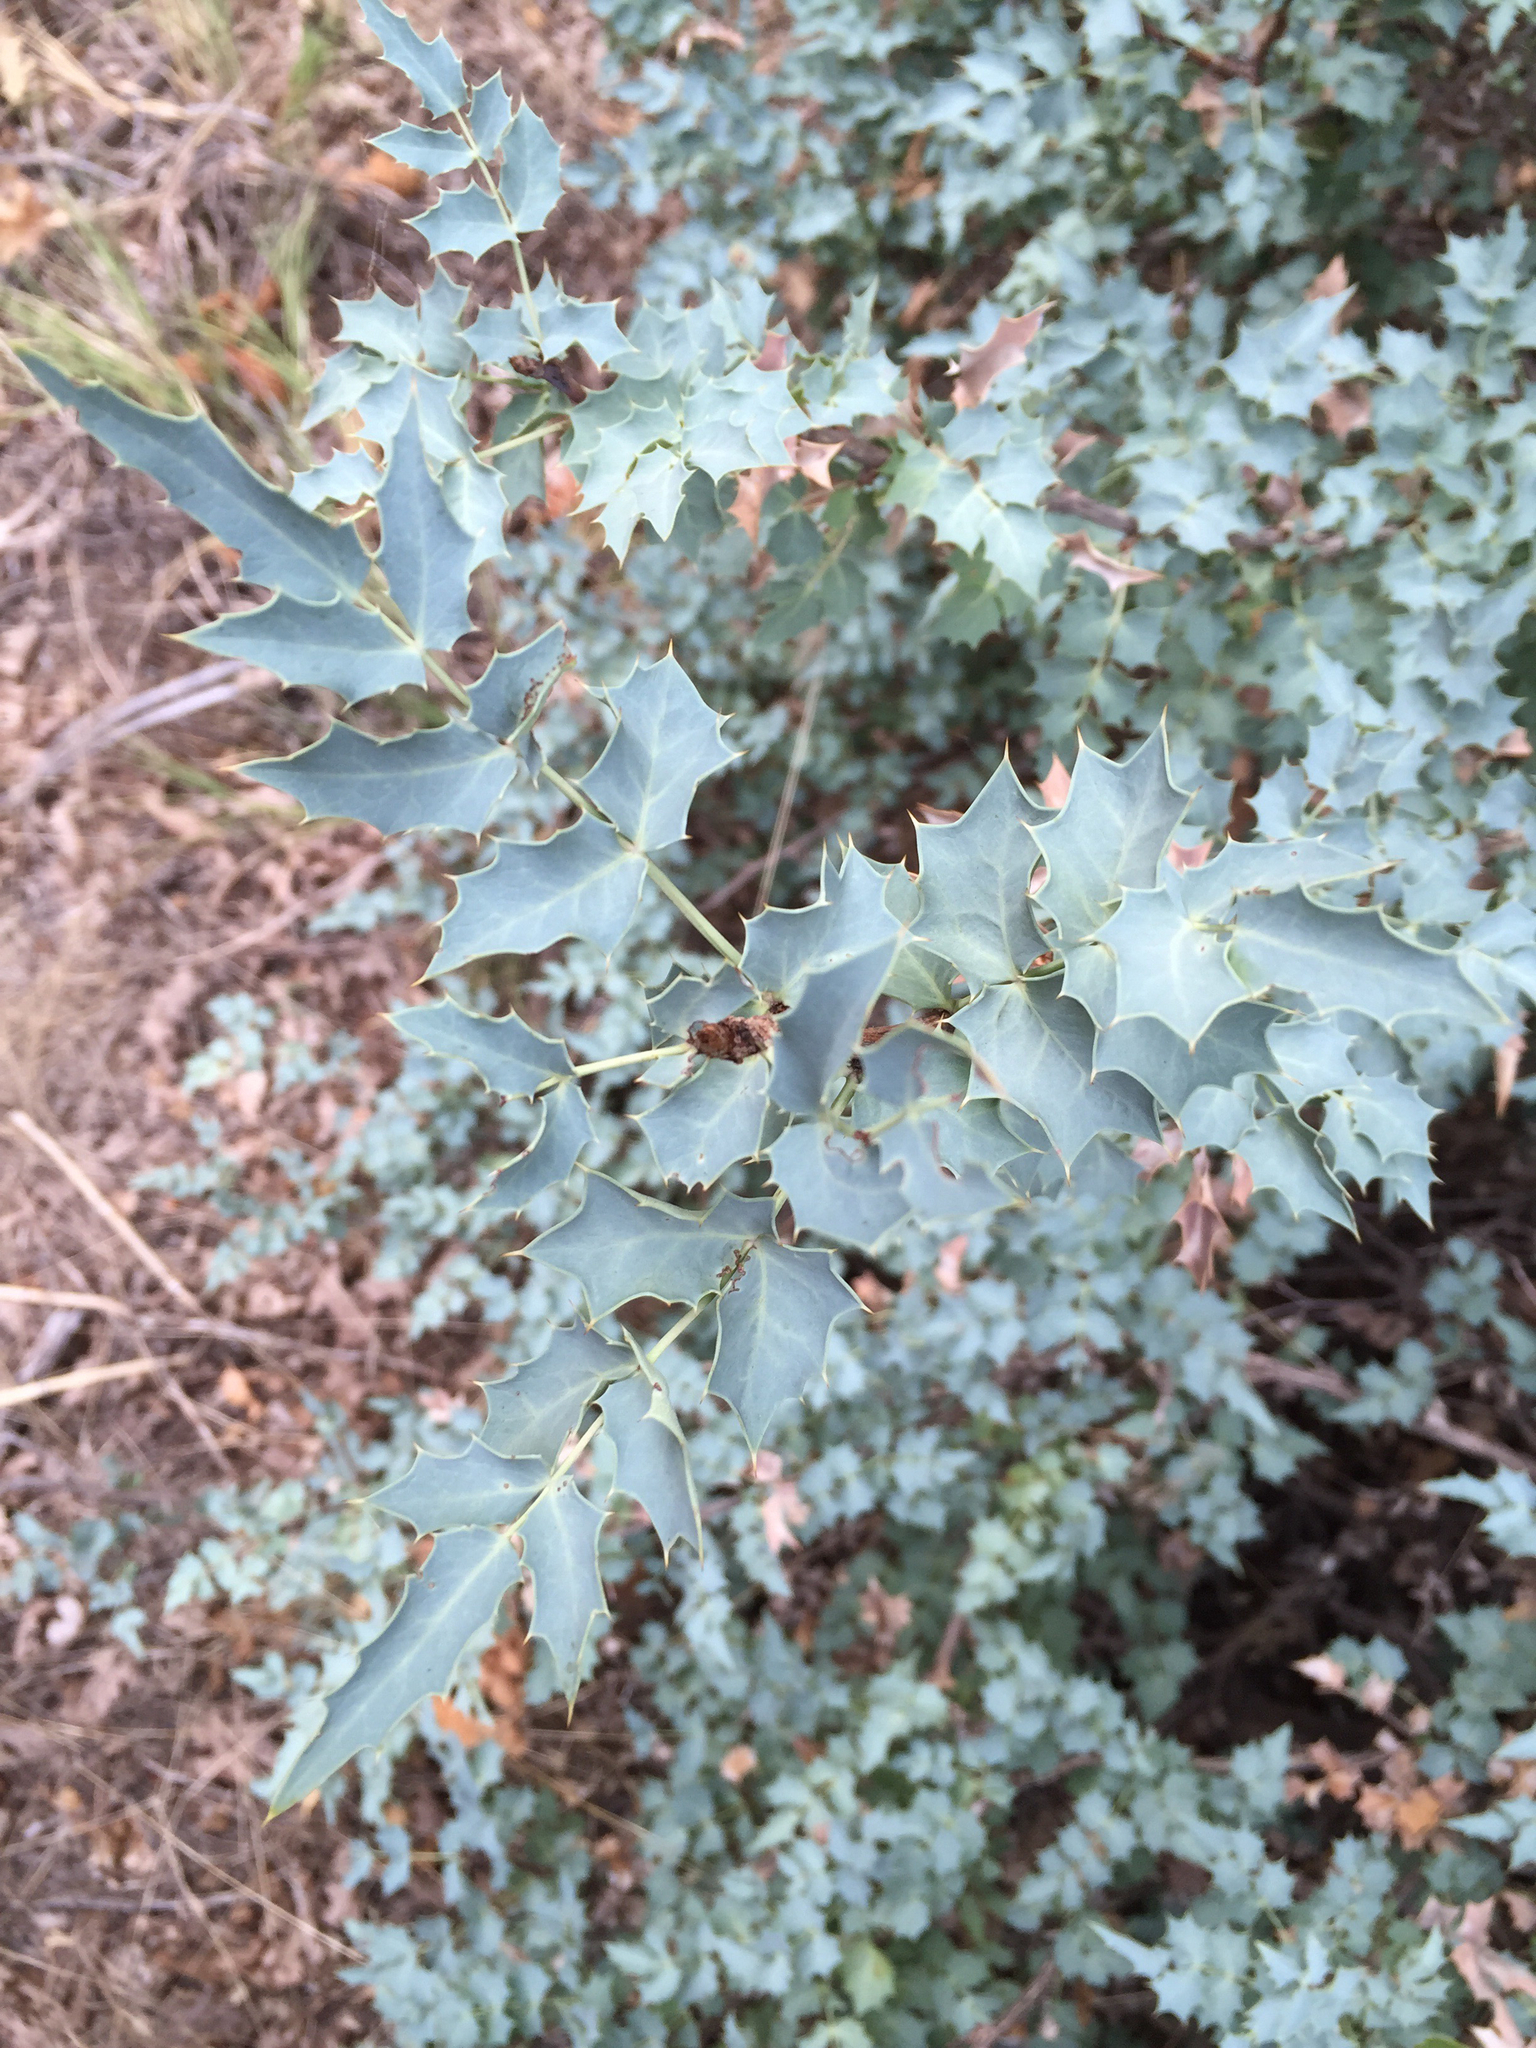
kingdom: Plantae
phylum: Tracheophyta
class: Magnoliopsida
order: Ranunculales
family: Berberidaceae
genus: Alloberberis
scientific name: Alloberberis fremontii
